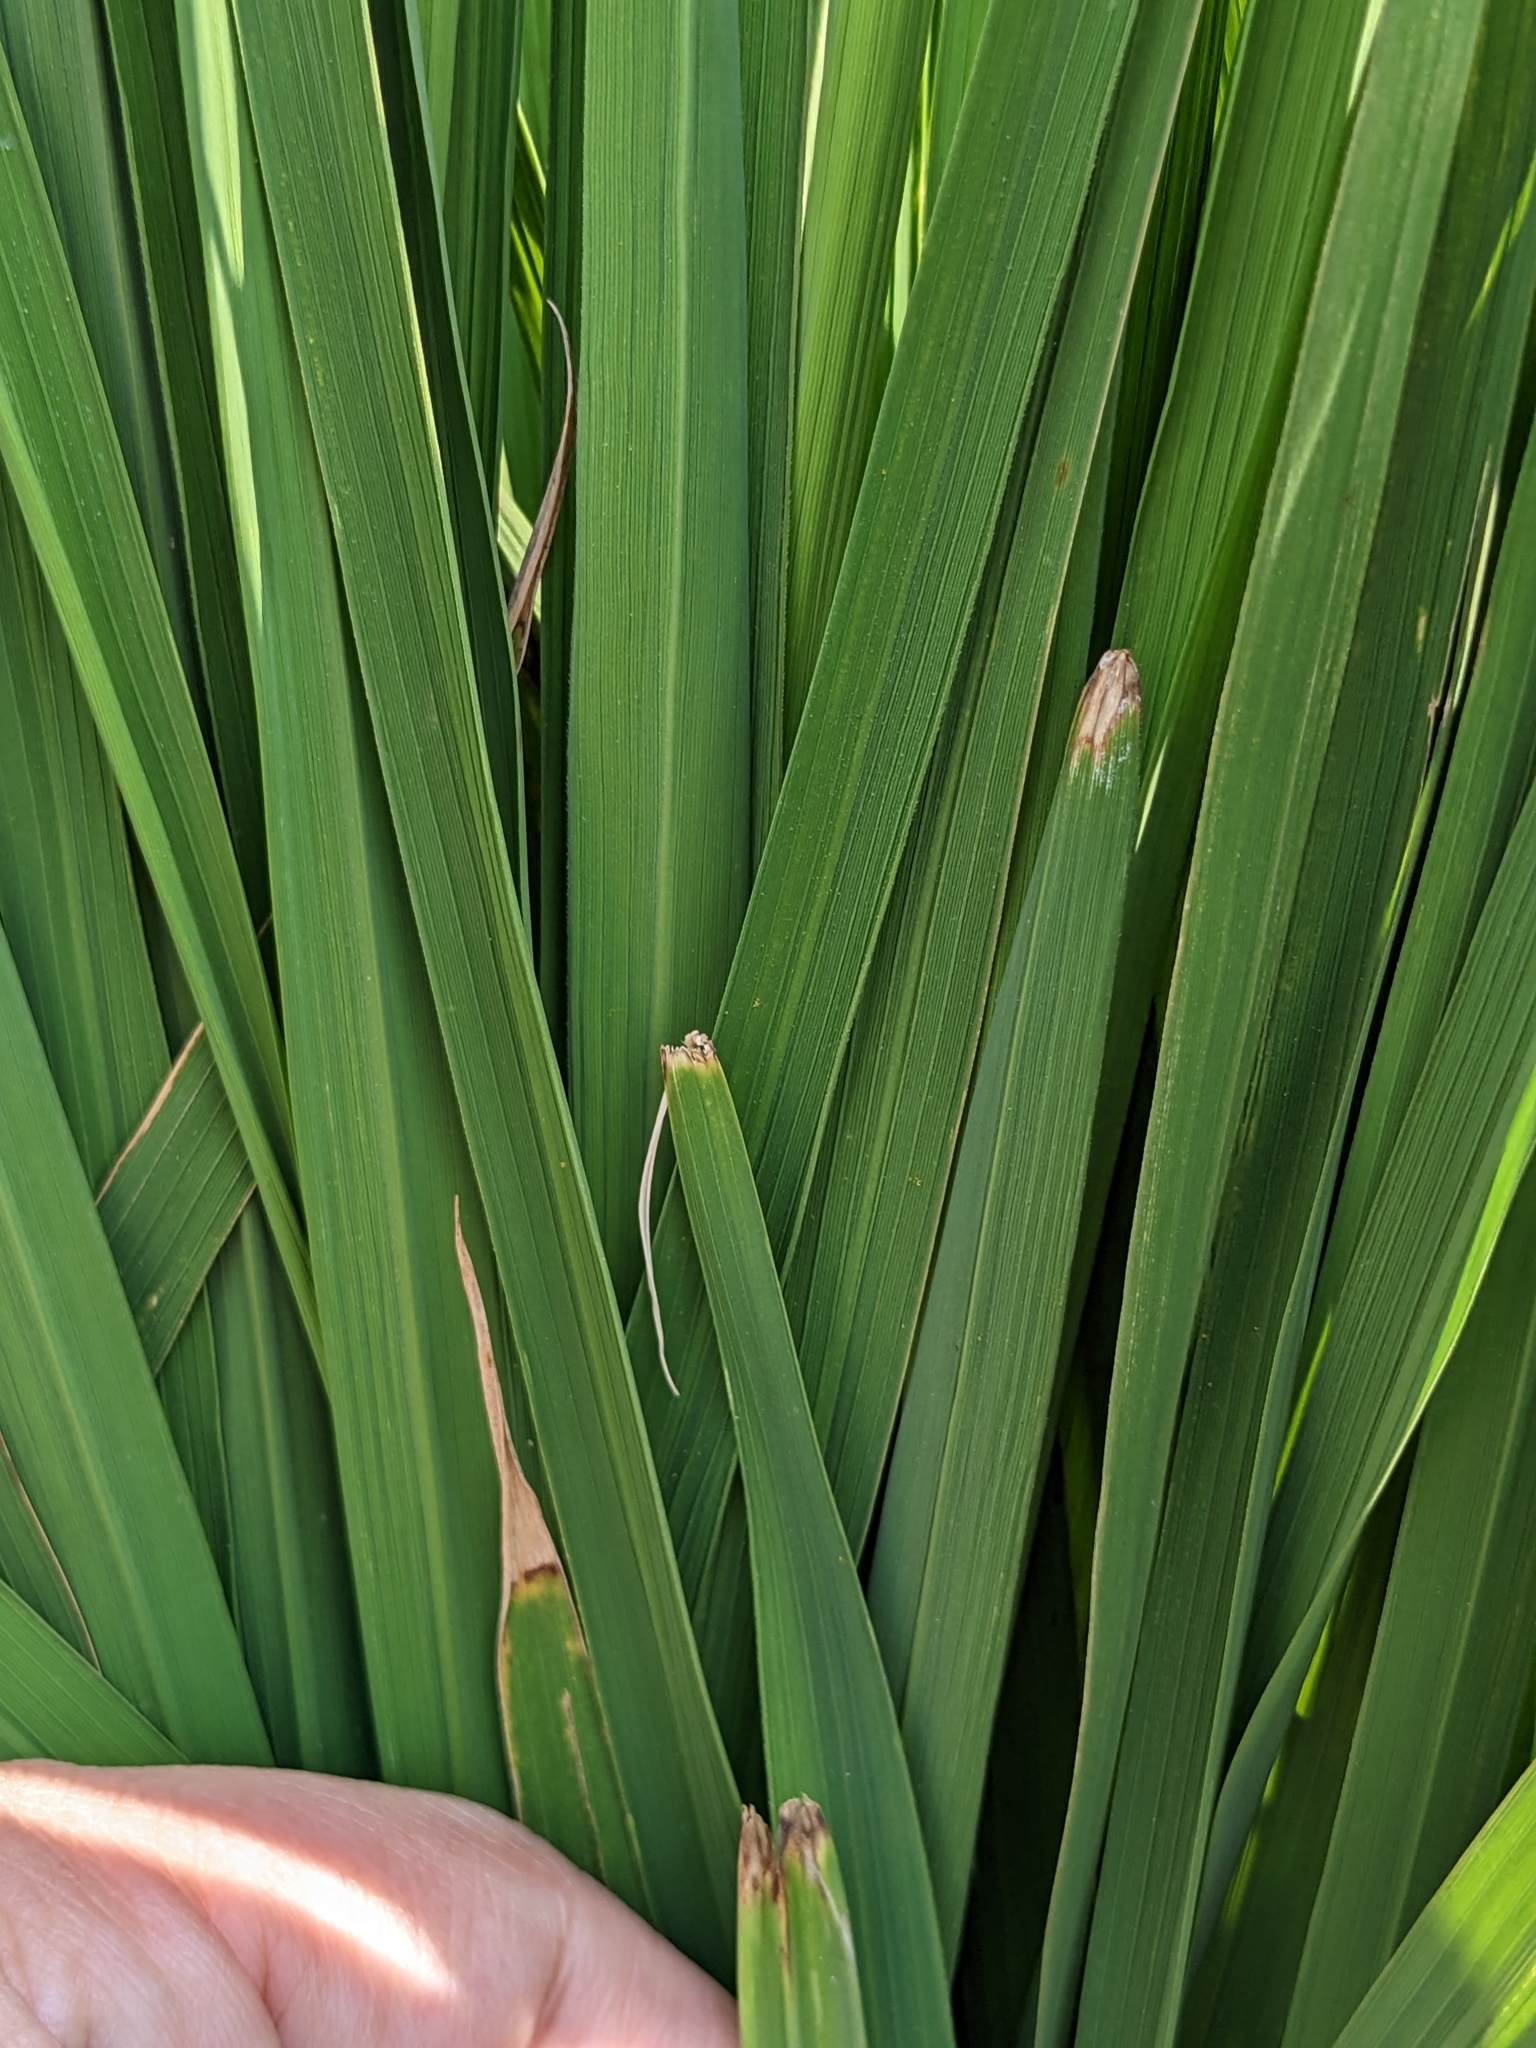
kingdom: Animalia
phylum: Arthropoda
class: Insecta
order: Hemiptera
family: Pentatomidae
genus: Scotinophara
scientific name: Scotinophara lurida
